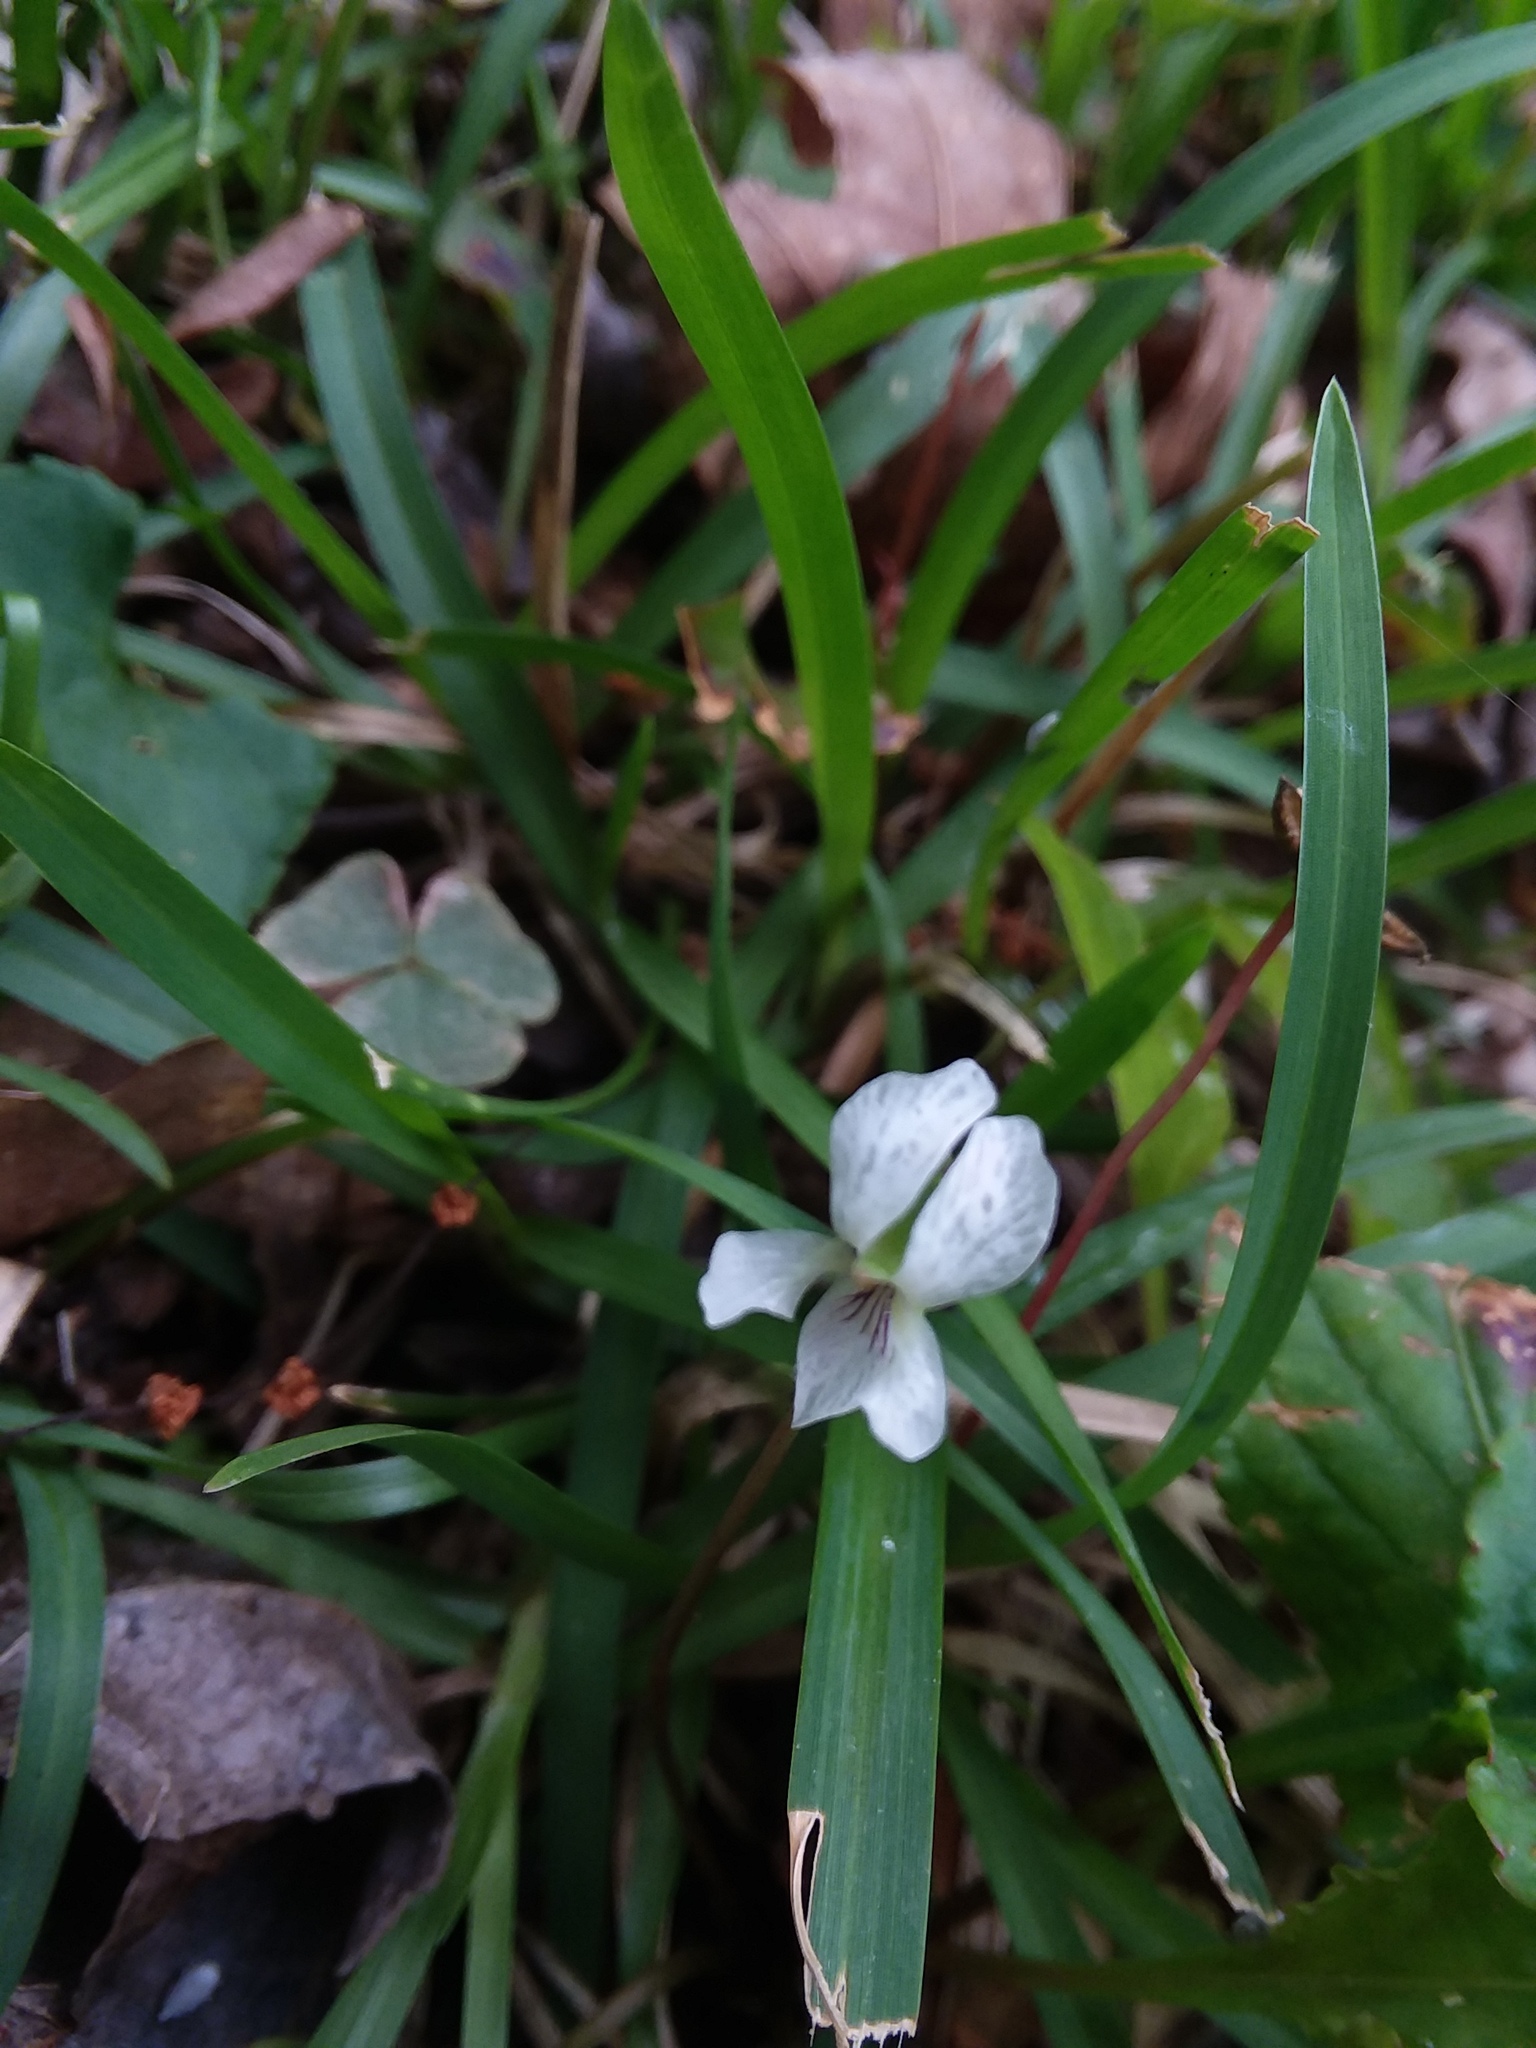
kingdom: Plantae
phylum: Tracheophyta
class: Magnoliopsida
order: Malpighiales
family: Violaceae
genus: Viola
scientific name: Viola primulifolia
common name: Primrose-leaf violet
